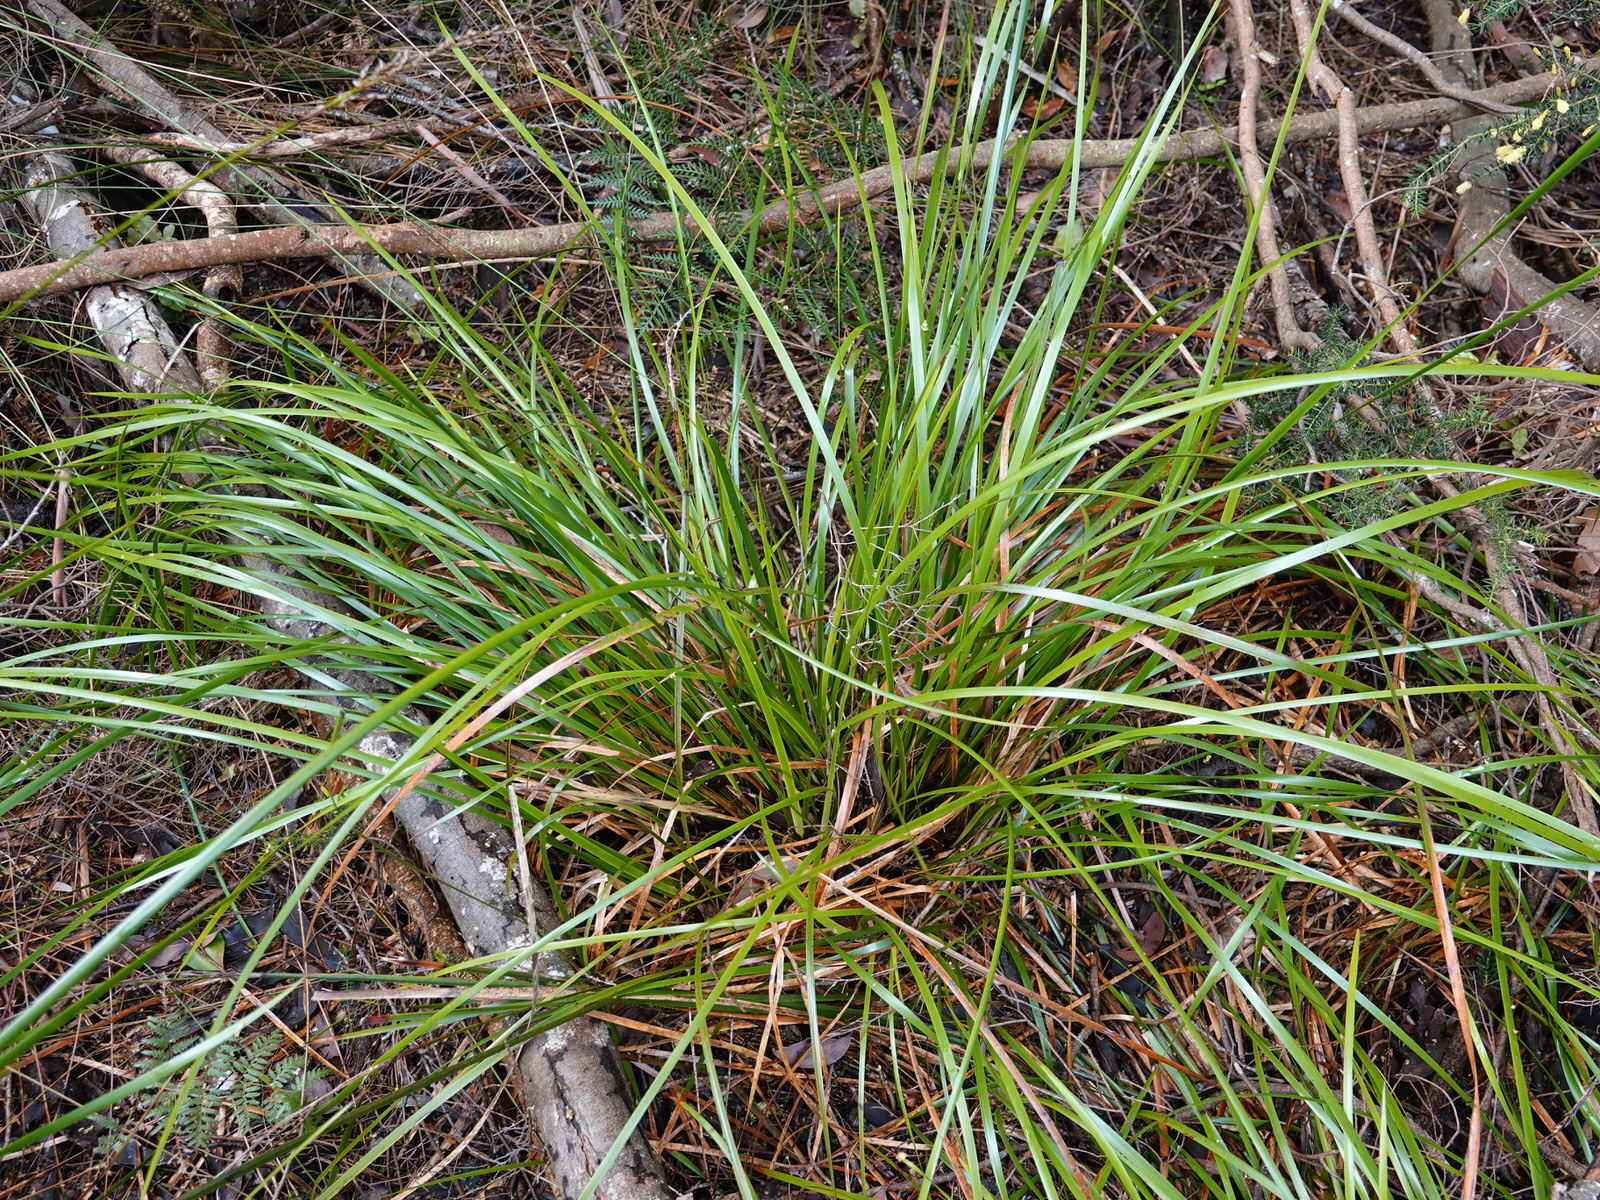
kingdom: Plantae
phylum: Tracheophyta
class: Liliopsida
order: Poales
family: Cyperaceae
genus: Lepidosperma
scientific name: Lepidosperma laterale
